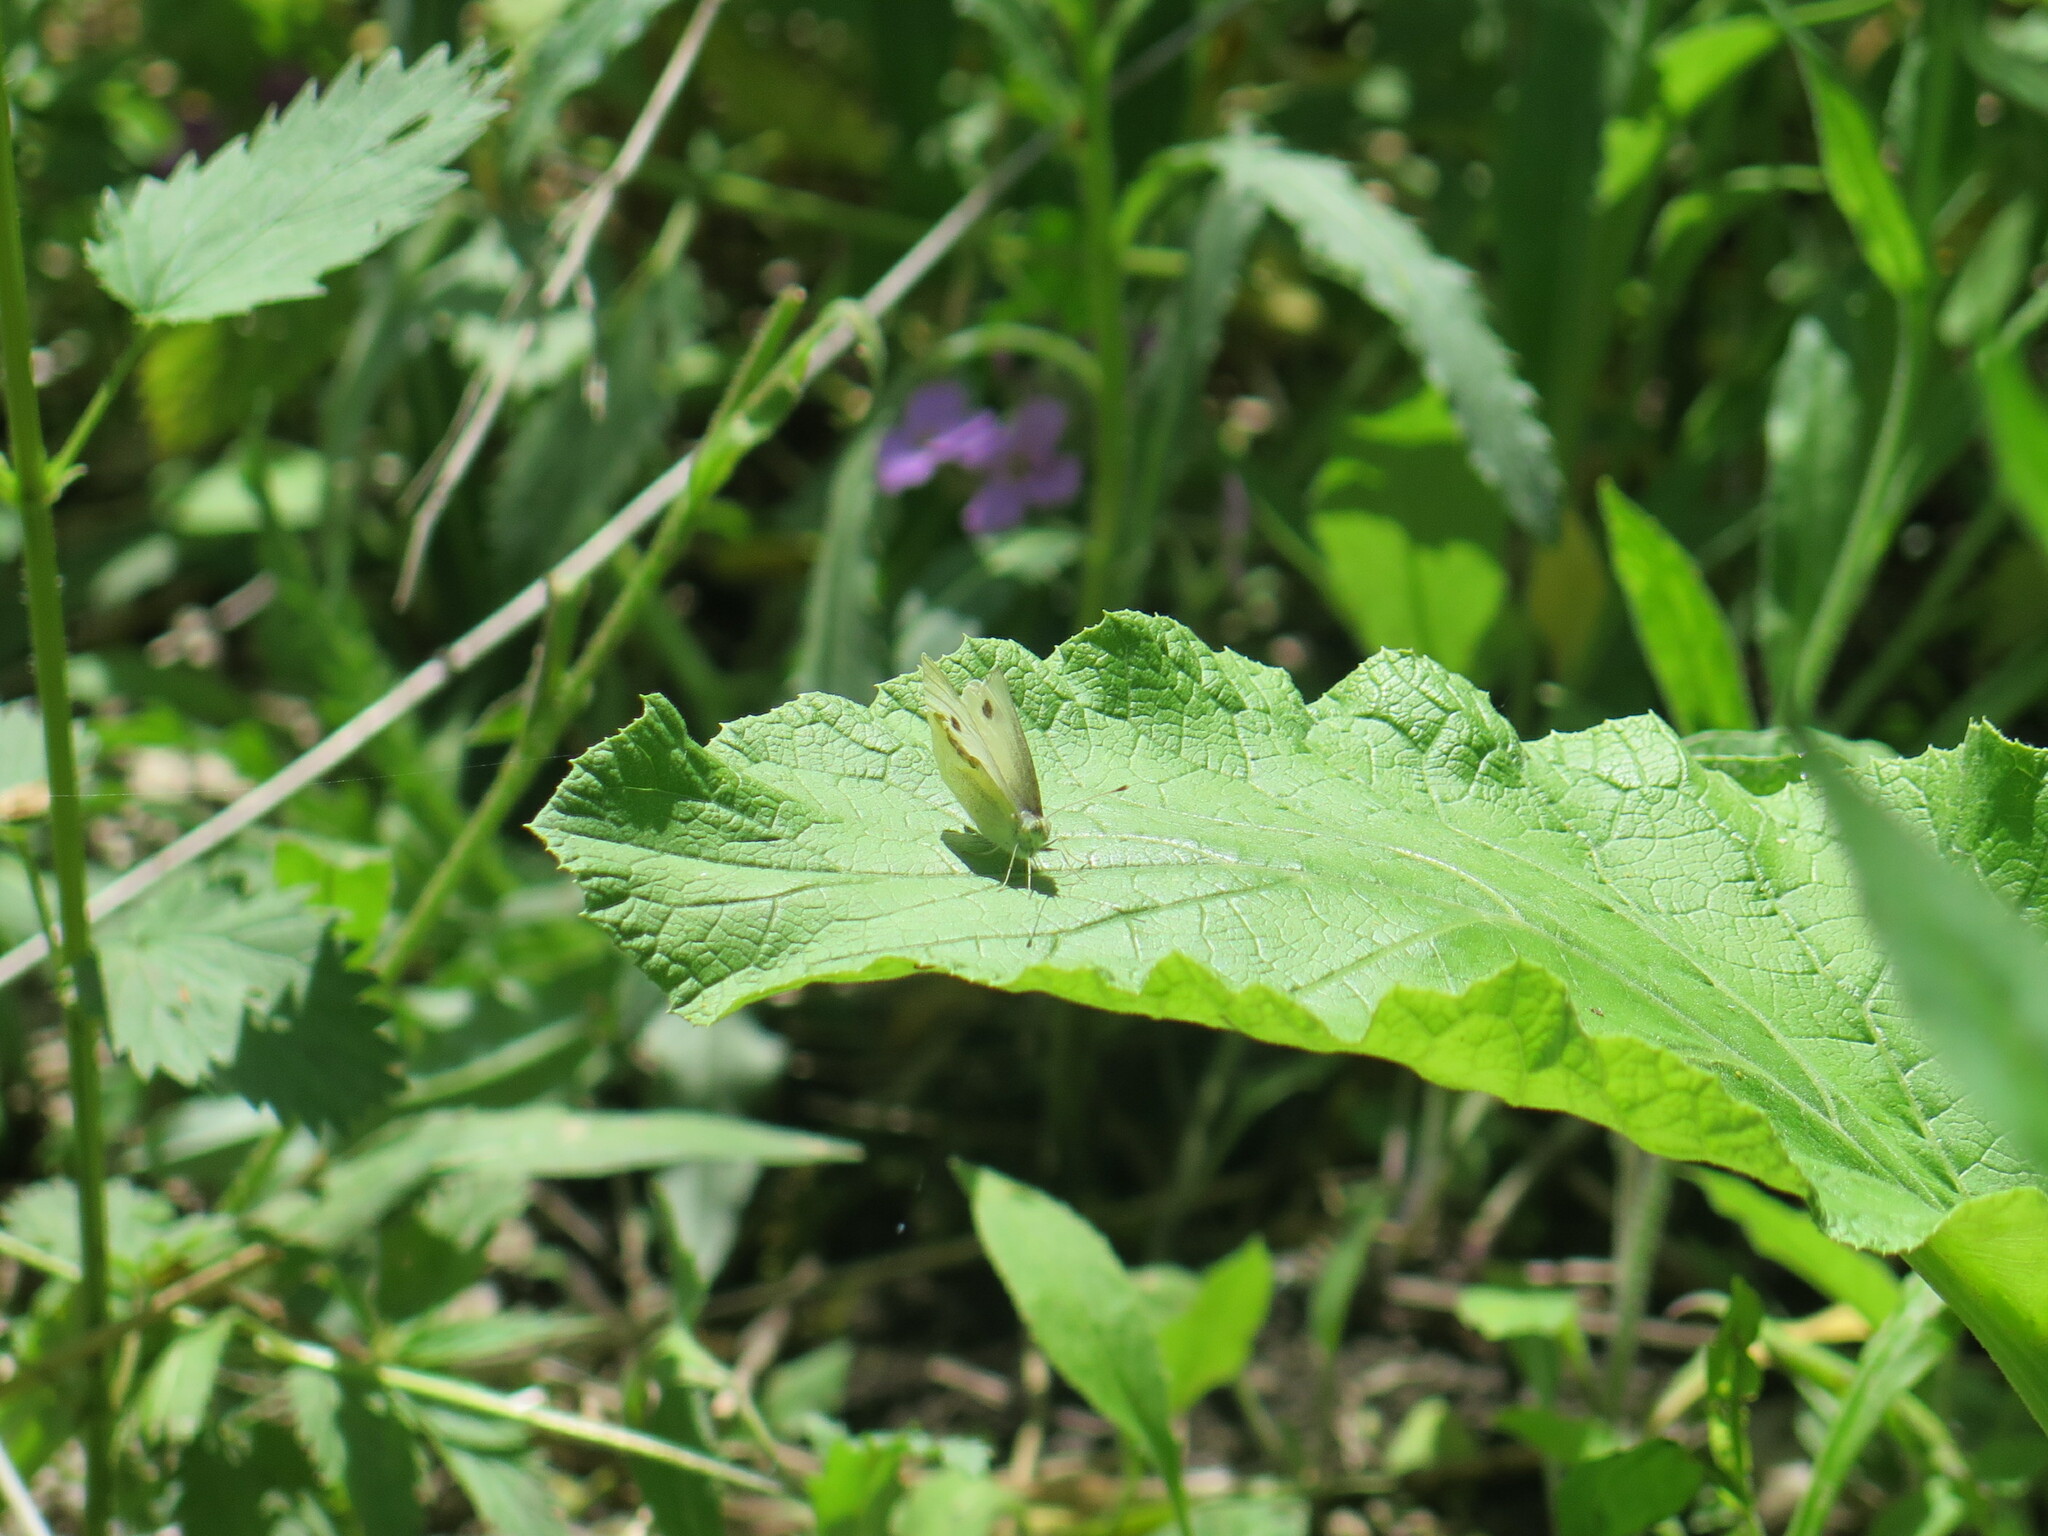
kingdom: Animalia
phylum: Arthropoda
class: Insecta
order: Lepidoptera
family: Pieridae
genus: Pieris
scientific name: Pieris rapae
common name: Small white
